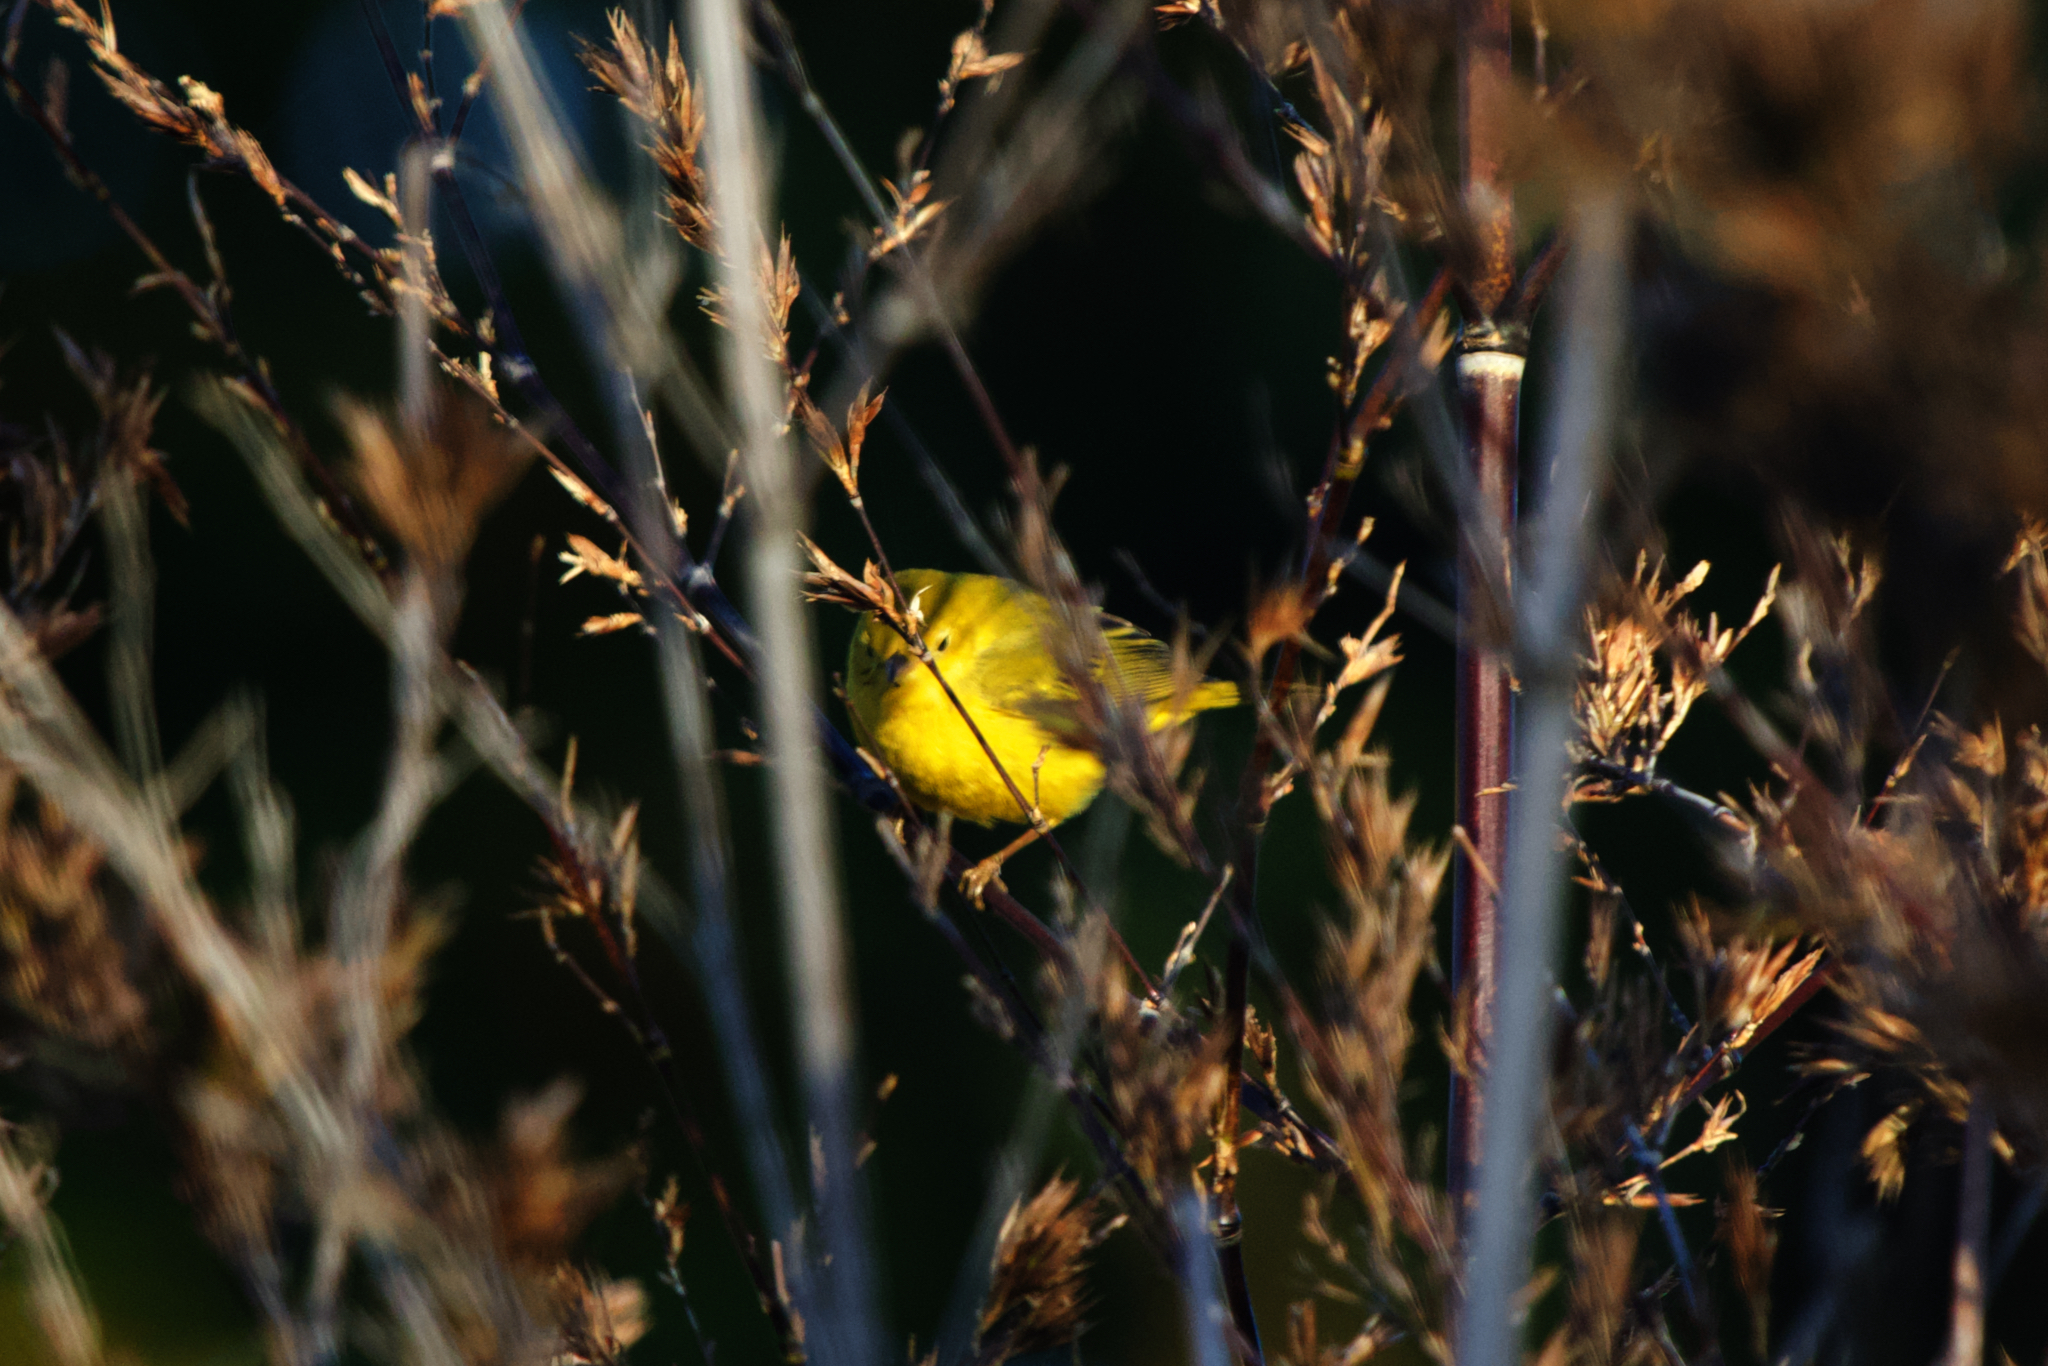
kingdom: Animalia
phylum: Chordata
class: Aves
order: Passeriformes
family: Parulidae
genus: Setophaga
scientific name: Setophaga petechia
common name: Yellow warbler
